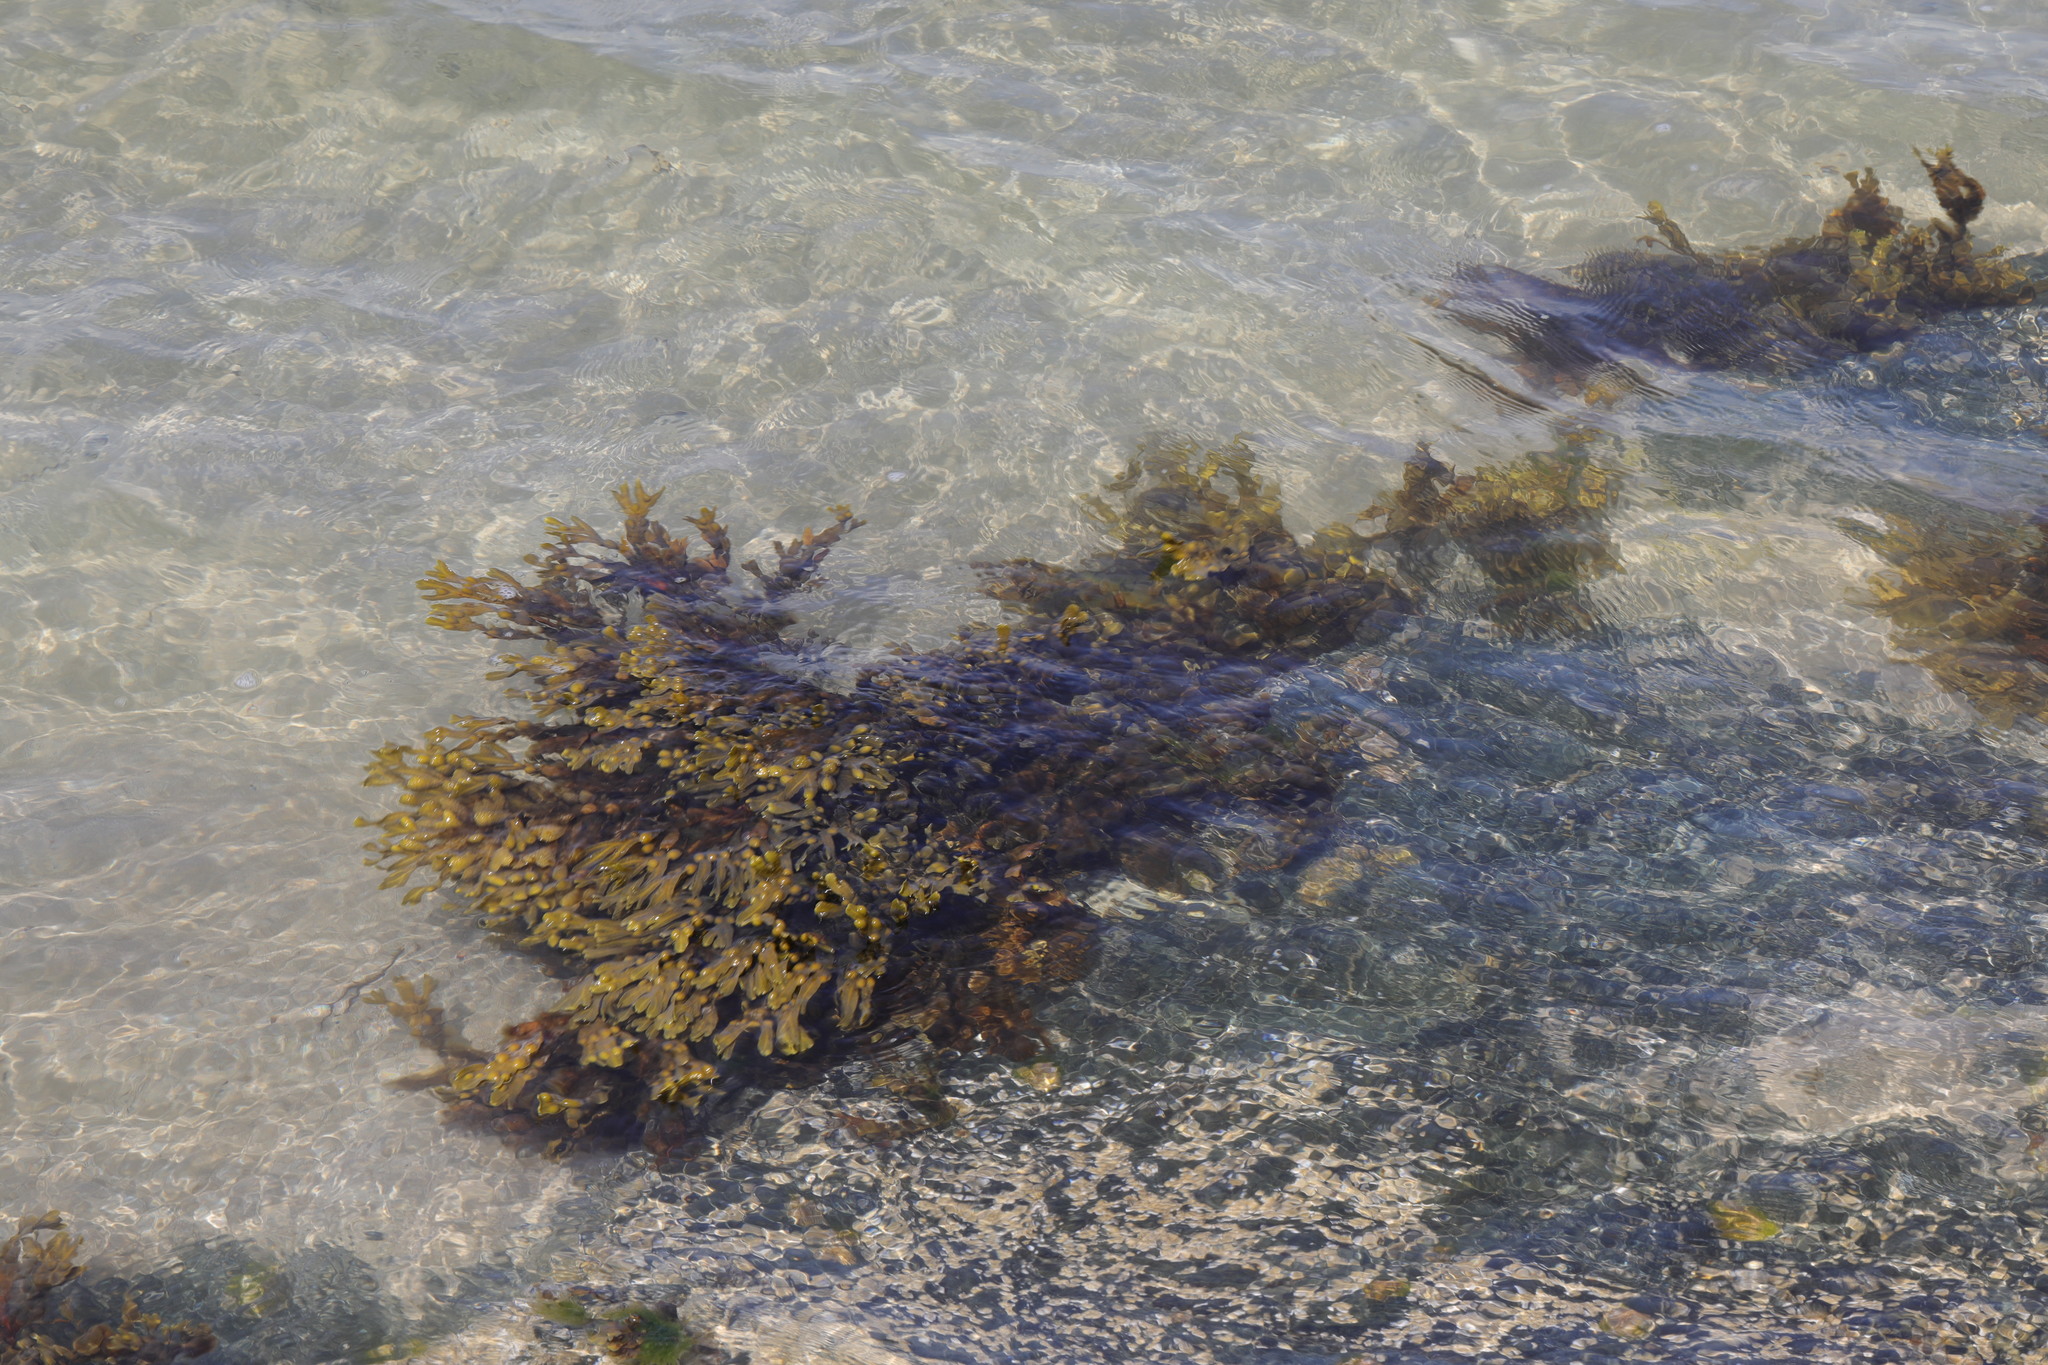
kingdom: Chromista
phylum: Ochrophyta
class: Phaeophyceae
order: Fucales
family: Fucaceae
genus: Fucus
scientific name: Fucus vesiculosus
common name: Bladder wrack
